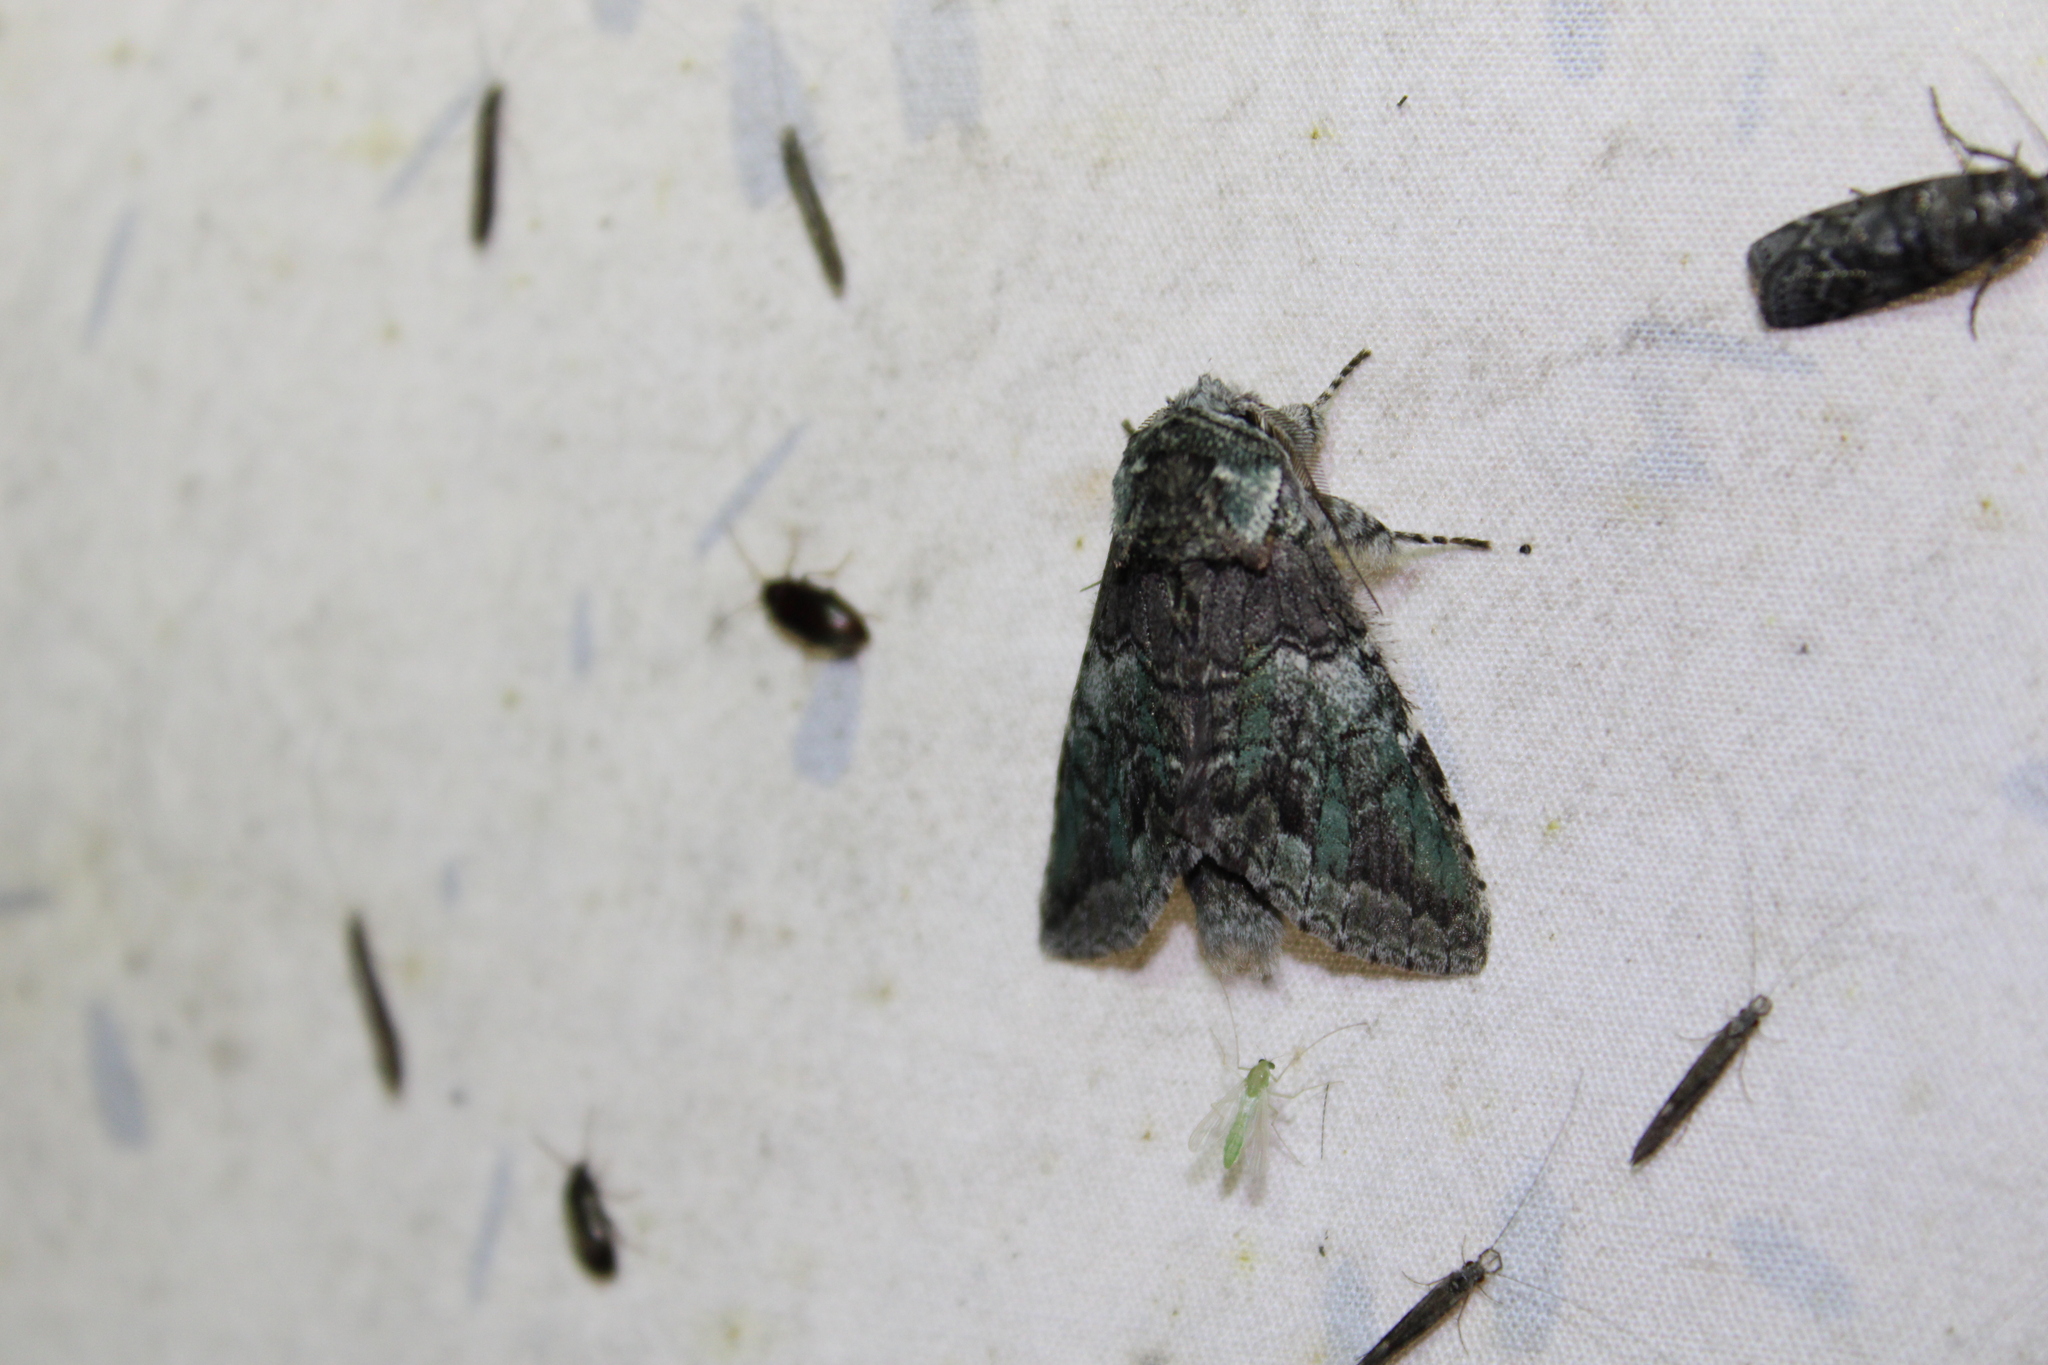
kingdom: Animalia
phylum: Arthropoda
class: Insecta
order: Lepidoptera
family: Notodontidae
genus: Macrurocampa
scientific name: Macrurocampa marthesia
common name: Mottled prominent
